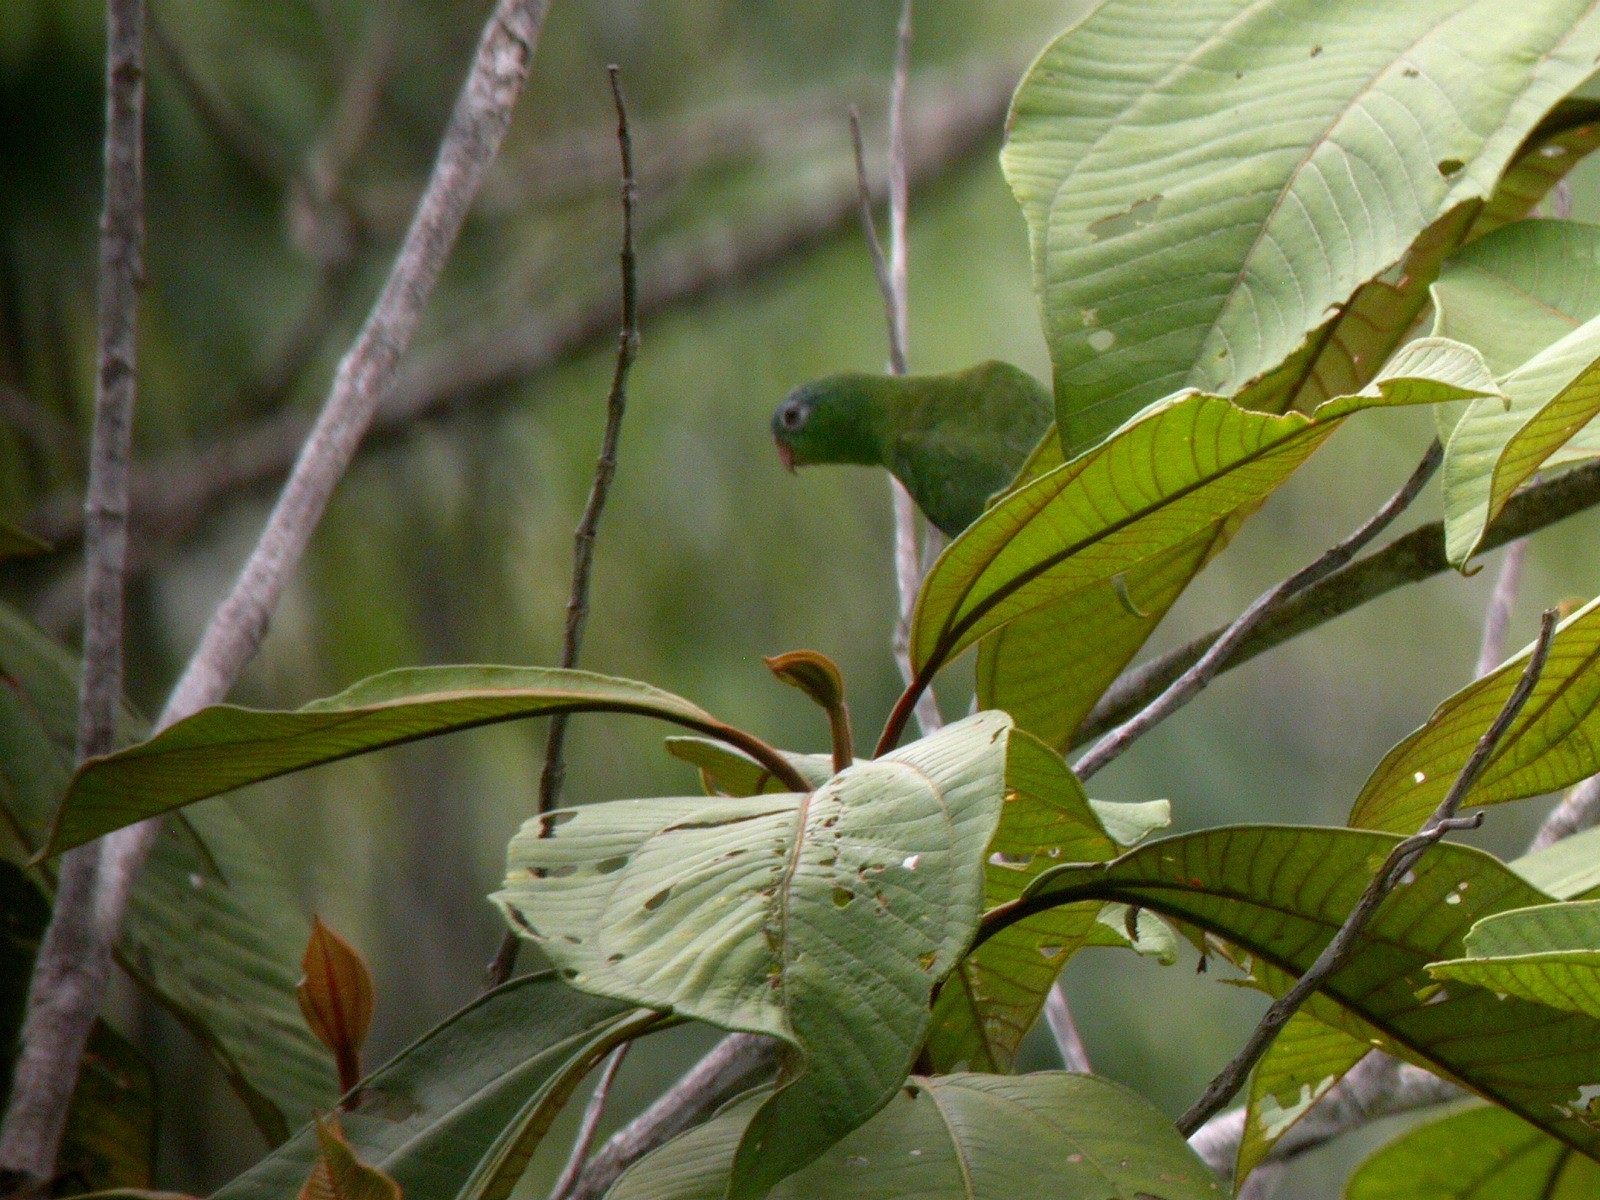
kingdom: Animalia
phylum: Chordata
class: Aves
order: Psittaciformes
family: Psittacidae
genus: Nannopsittaca
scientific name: Nannopsittaca dachilleae
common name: Manu parrotlet
